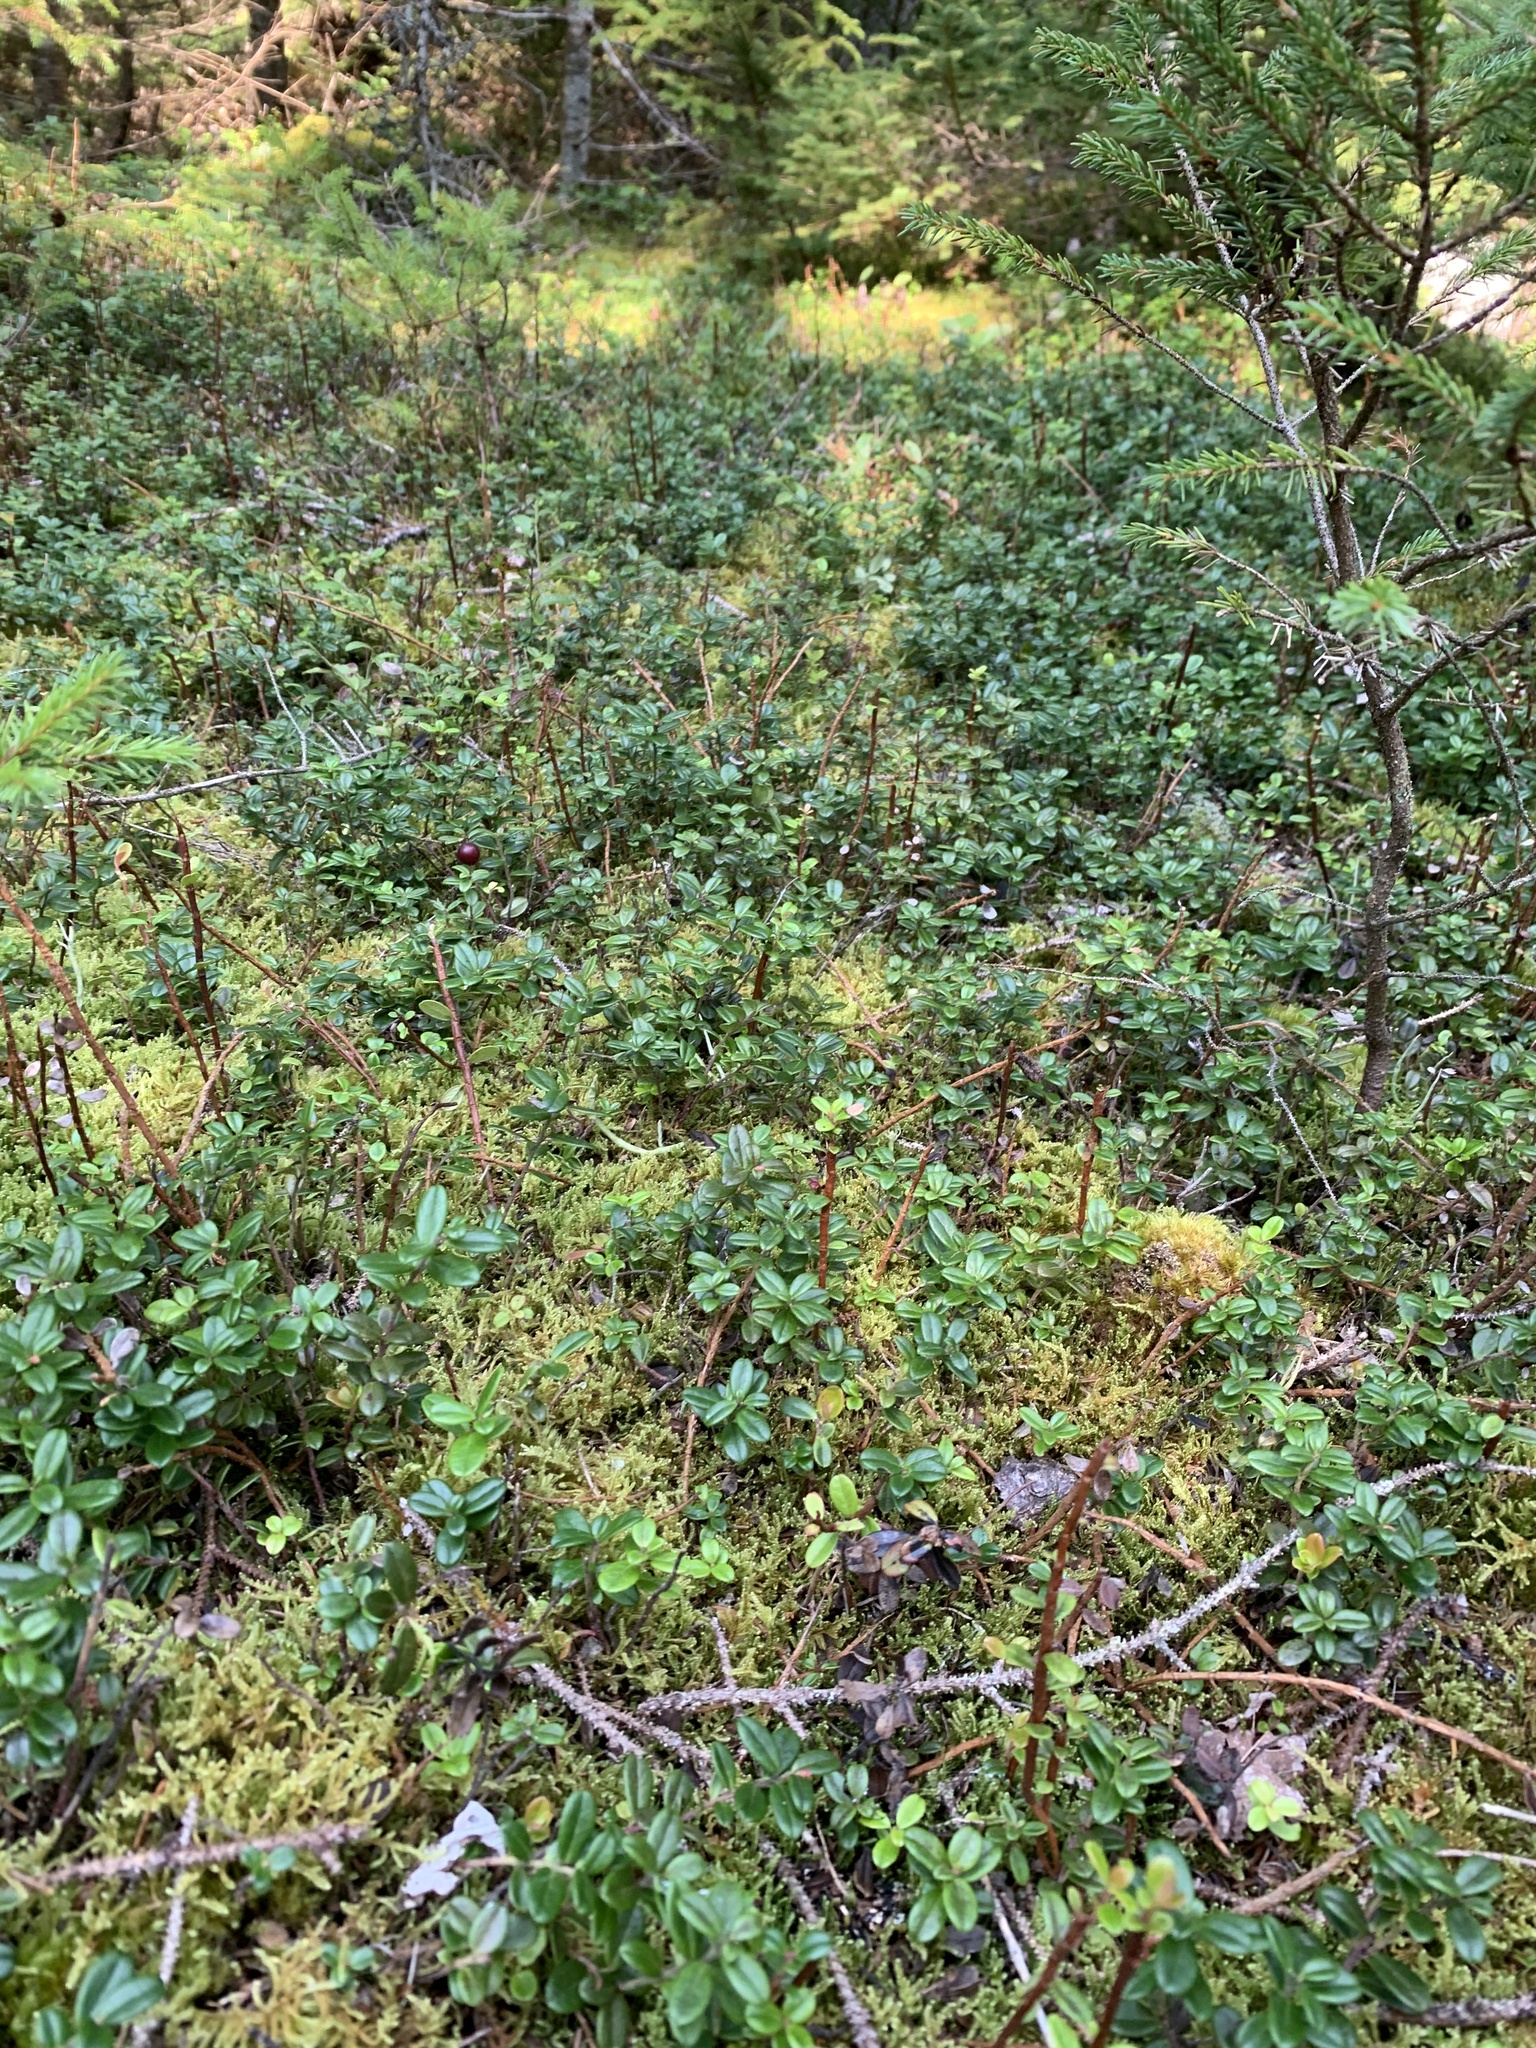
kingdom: Plantae
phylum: Tracheophyta
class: Magnoliopsida
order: Ericales
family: Ericaceae
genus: Vaccinium
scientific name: Vaccinium vitis-idaea
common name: Cowberry
